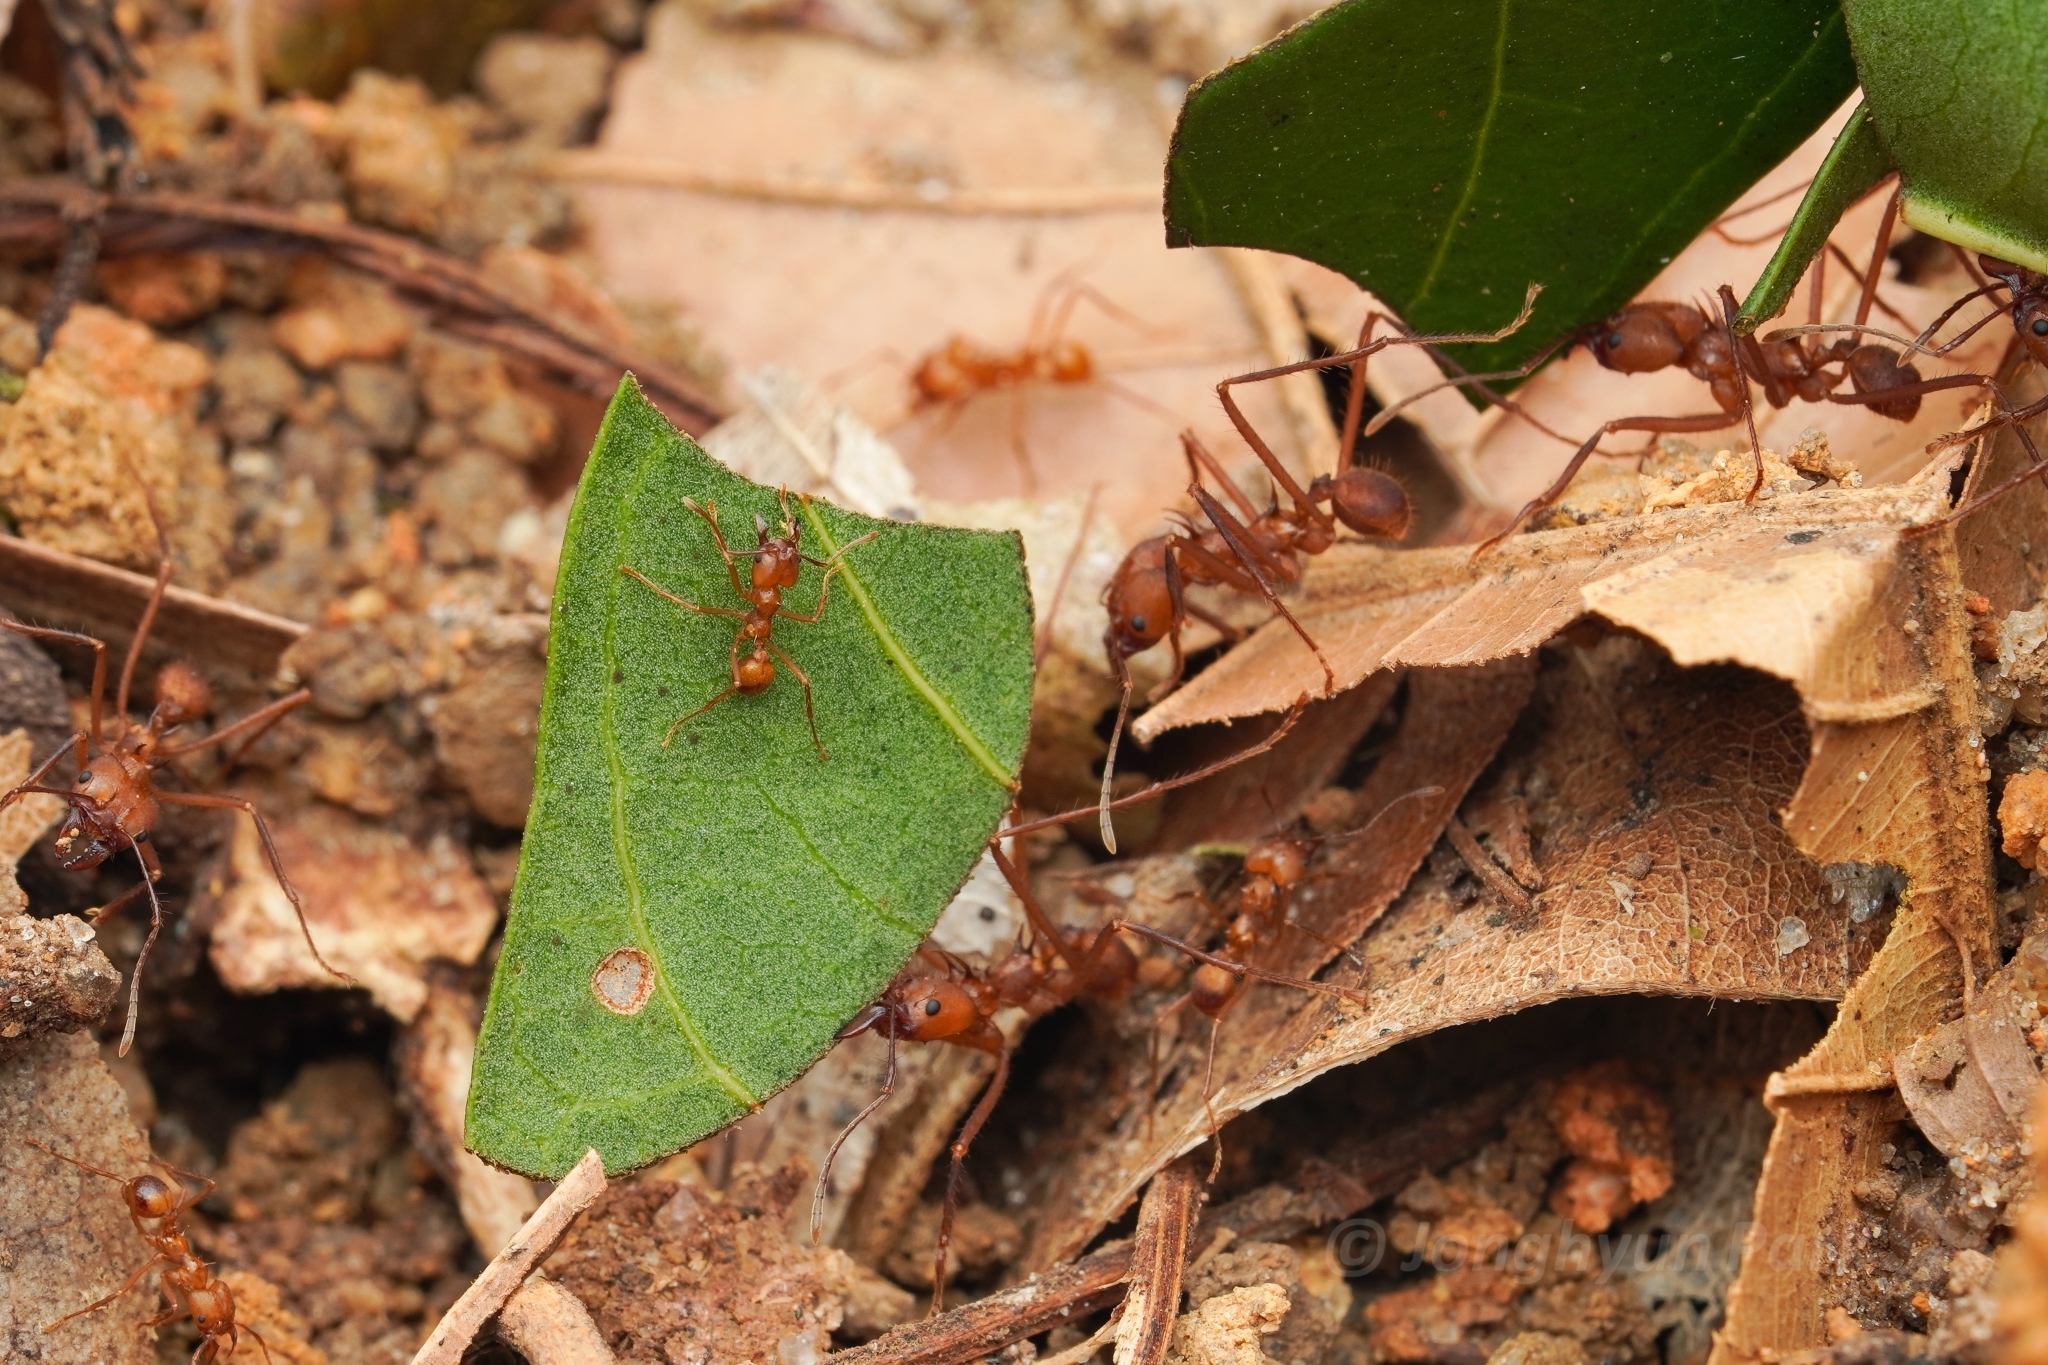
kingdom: Animalia
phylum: Arthropoda
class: Insecta
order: Hymenoptera
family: Formicidae
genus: Atta
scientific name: Atta cephalotes
